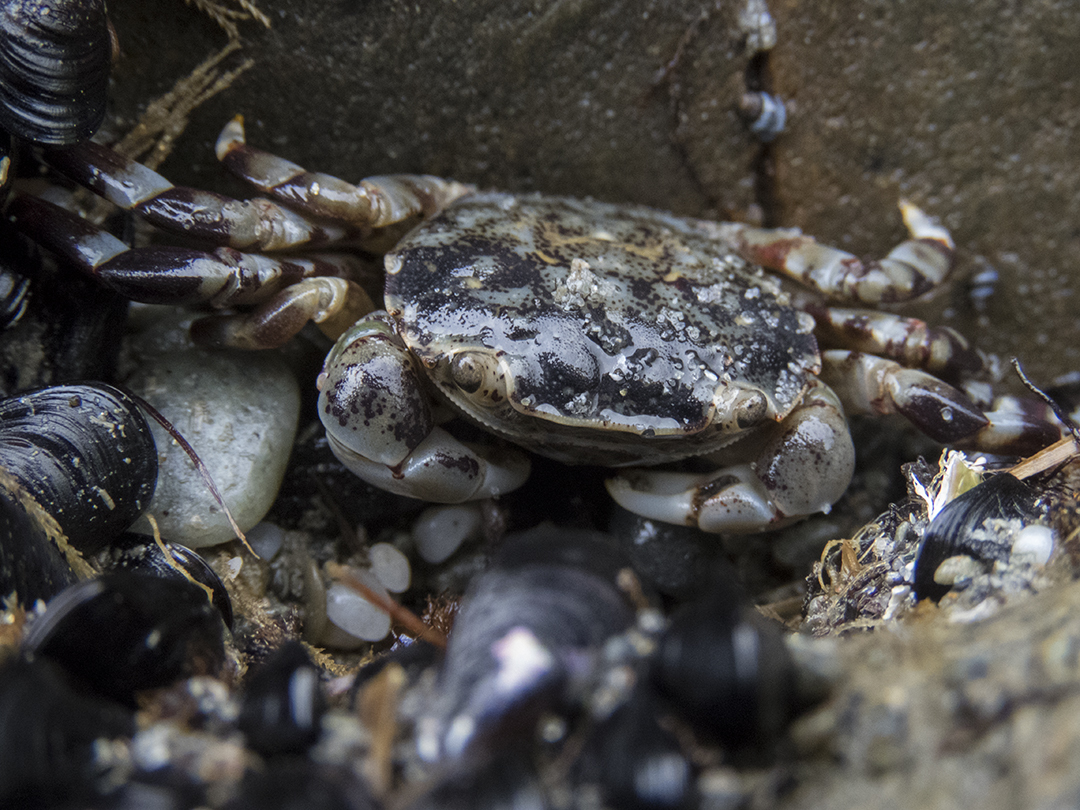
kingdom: Animalia
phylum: Arthropoda
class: Malacostraca
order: Decapoda
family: Varunidae
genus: Hemigrapsus
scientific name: Hemigrapsus sexdentatus
